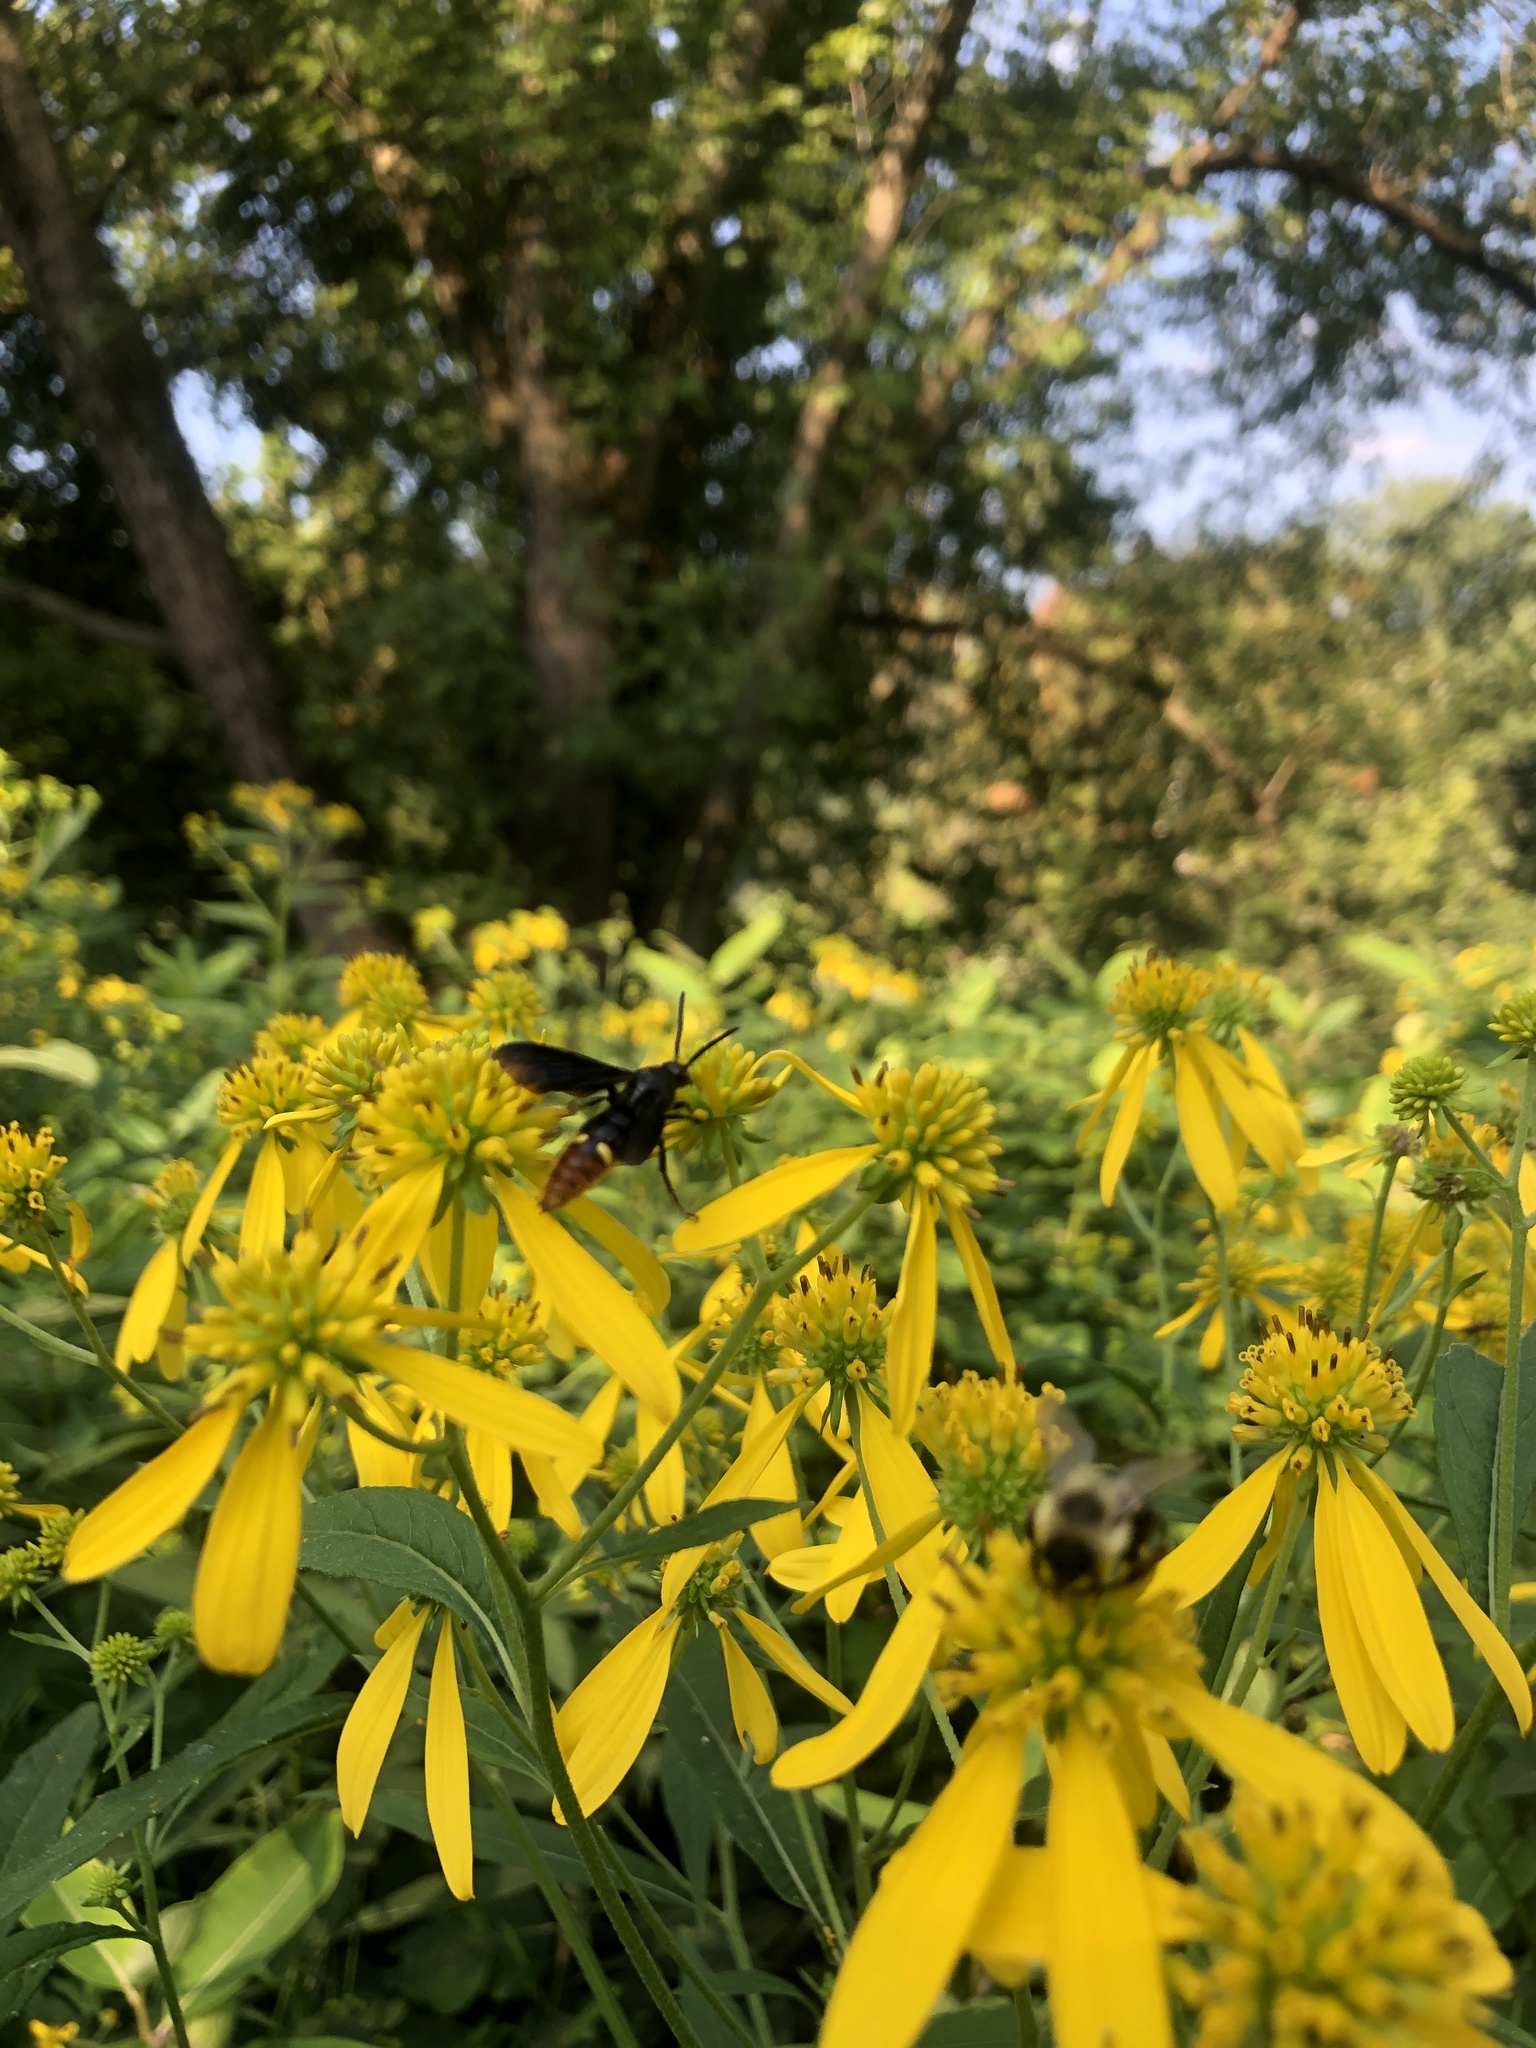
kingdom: Animalia
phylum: Arthropoda
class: Insecta
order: Hymenoptera
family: Scoliidae
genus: Scolia
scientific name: Scolia dubia
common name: Blue-winged scoliid wasp
